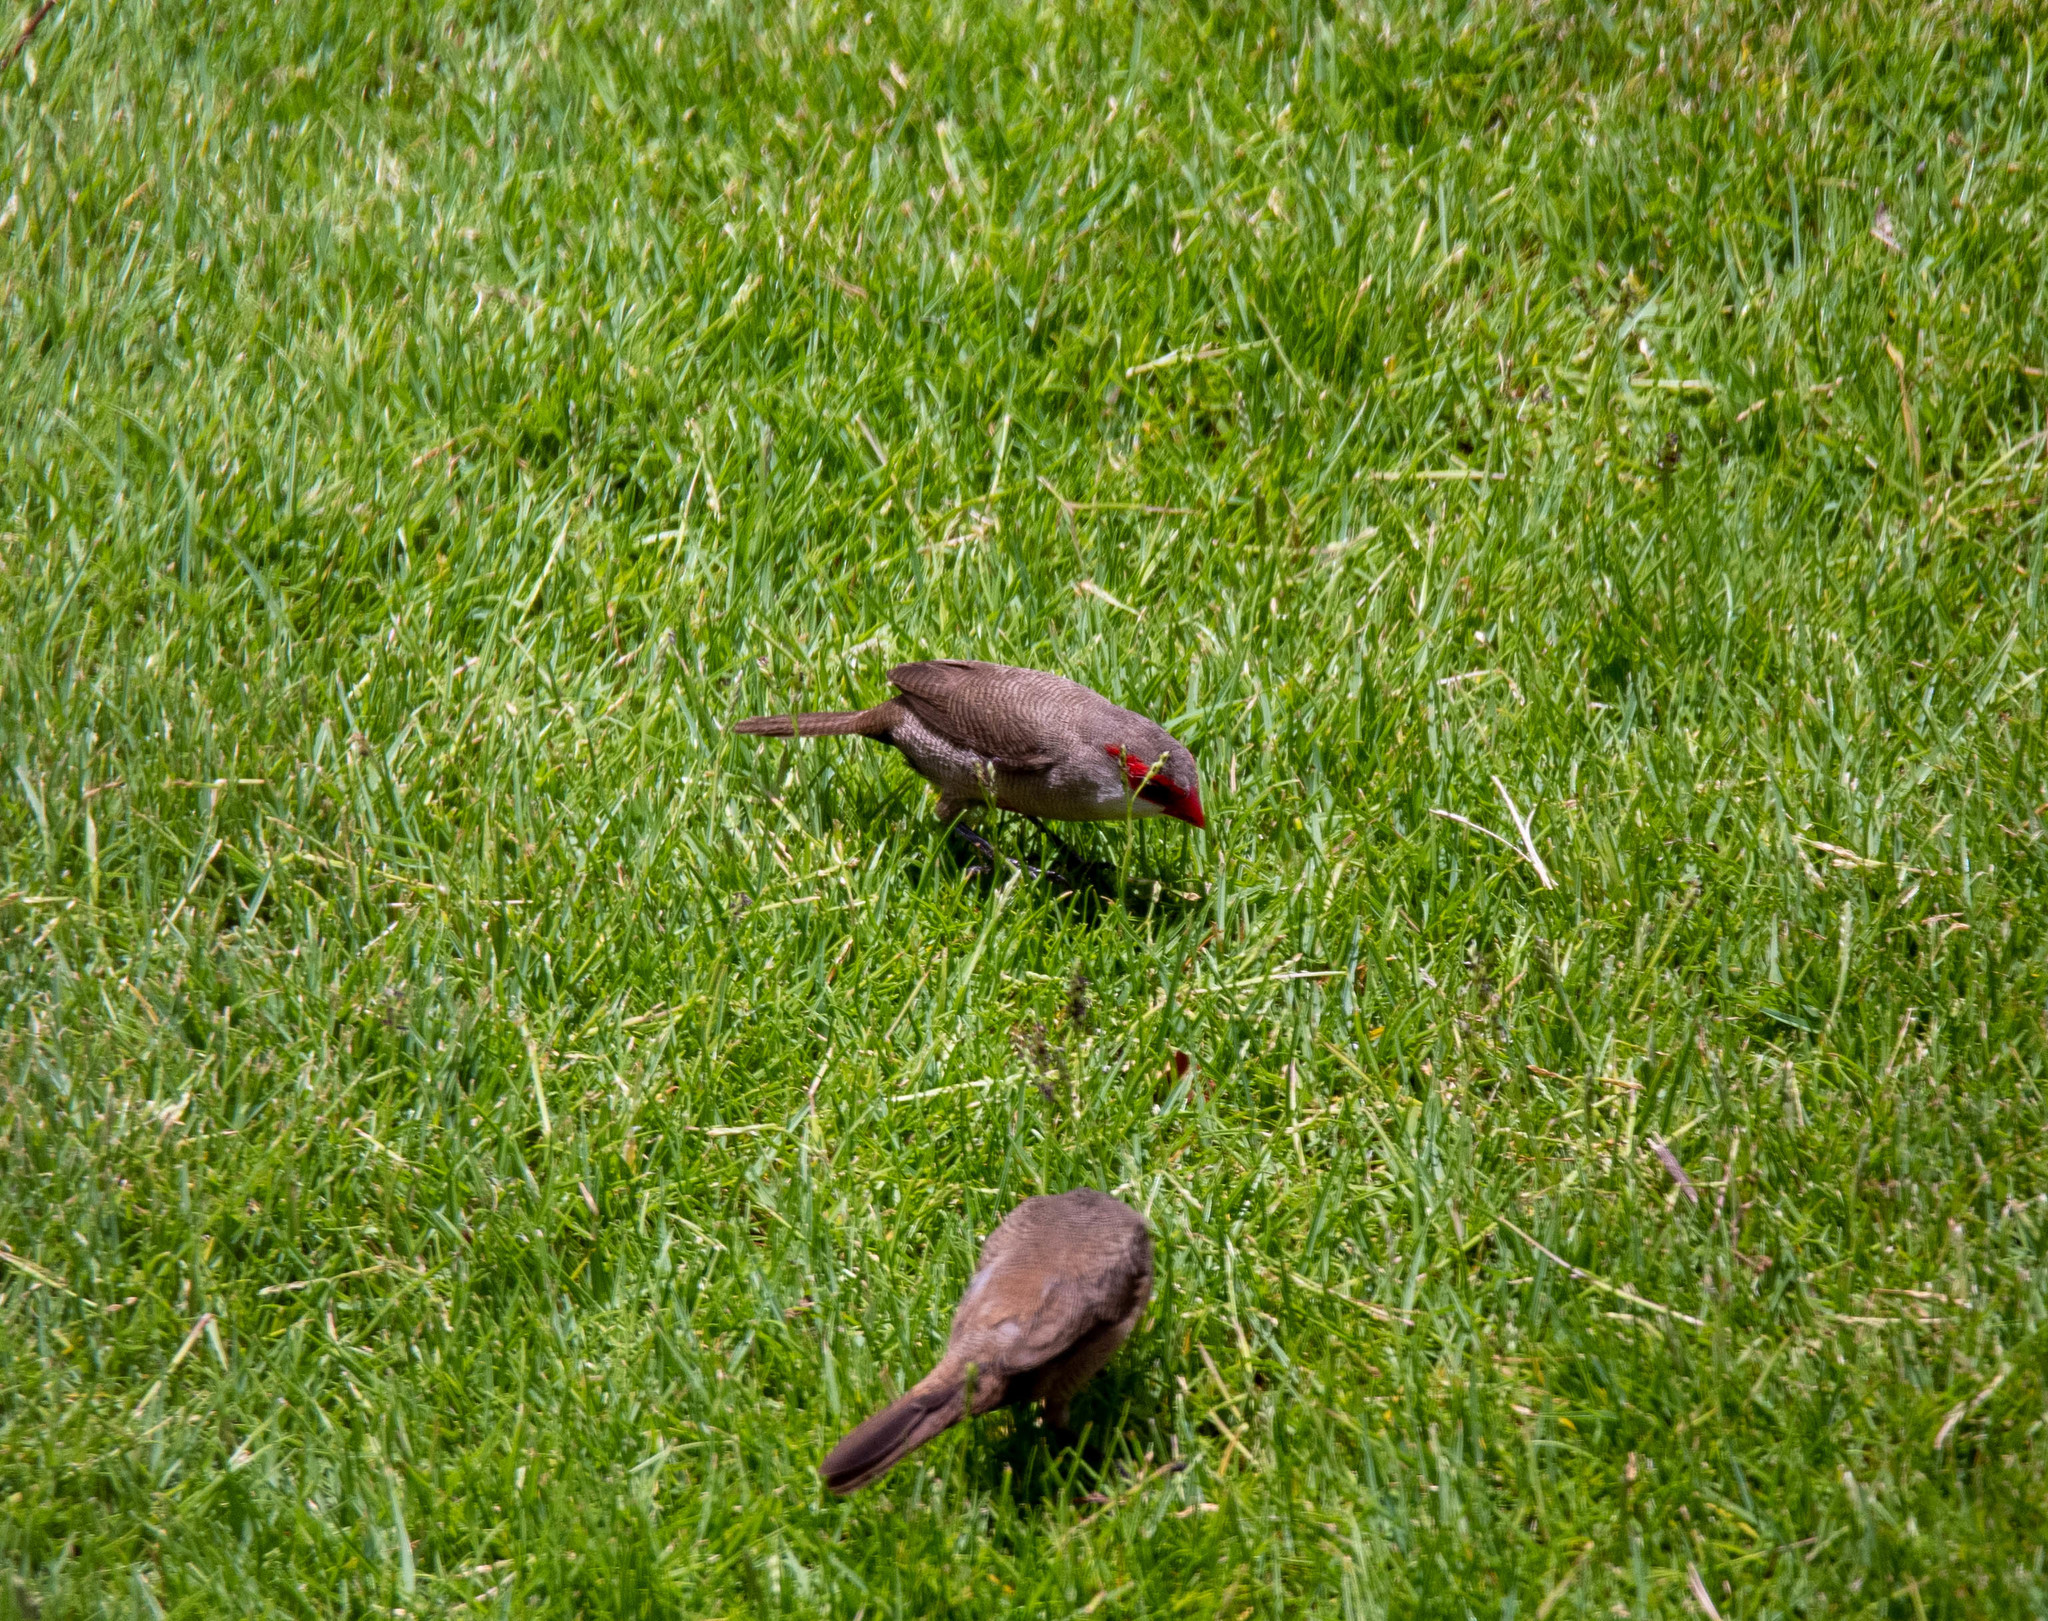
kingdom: Animalia
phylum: Chordata
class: Aves
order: Passeriformes
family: Estrildidae
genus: Estrilda
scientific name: Estrilda astrild
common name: Common waxbill
